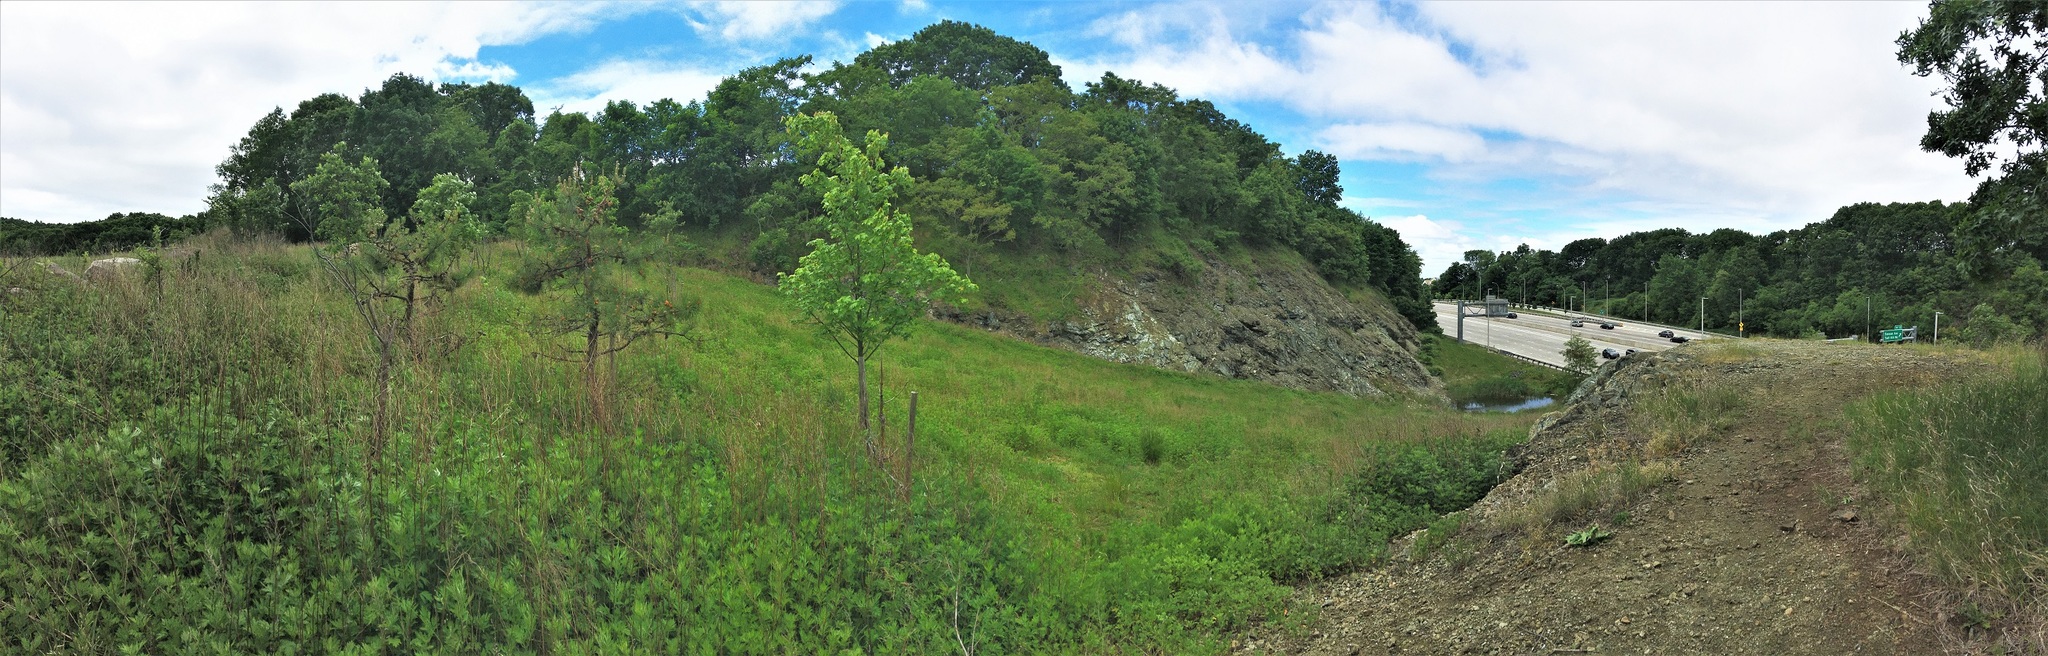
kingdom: Plantae
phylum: Tracheophyta
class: Magnoliopsida
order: Fagales
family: Fagaceae
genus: Quercus
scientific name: Quercus palustris
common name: Pin oak
